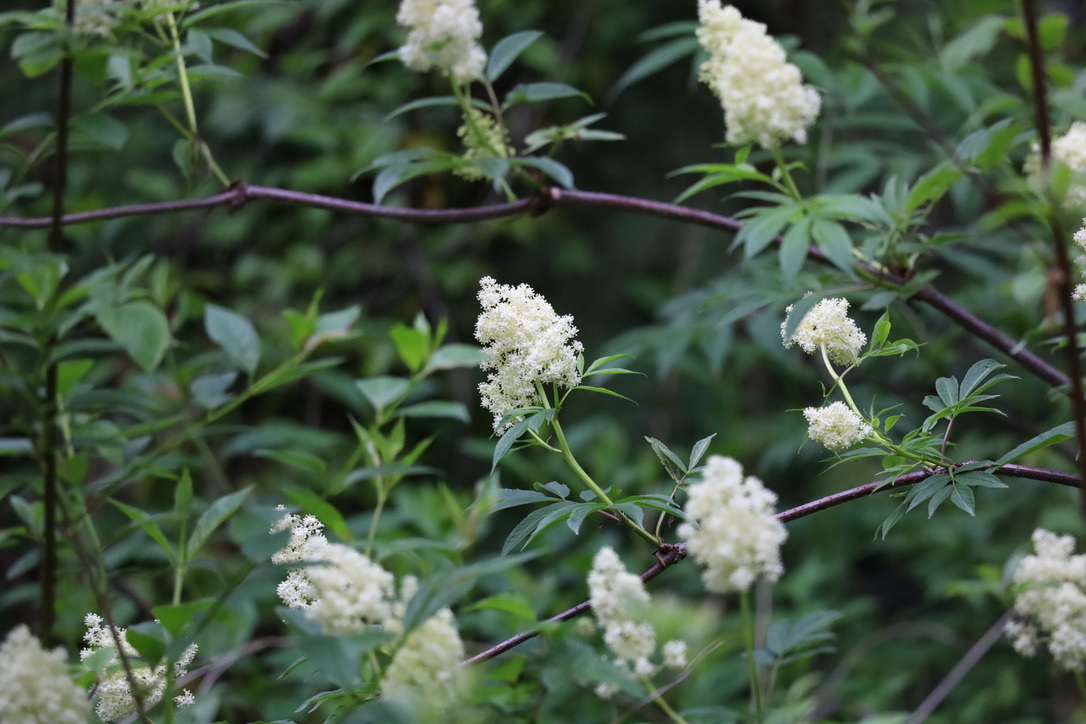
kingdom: Plantae
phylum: Tracheophyta
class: Magnoliopsida
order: Dipsacales
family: Viburnaceae
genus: Sambucus
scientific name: Sambucus racemosa
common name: Red-berried elder
